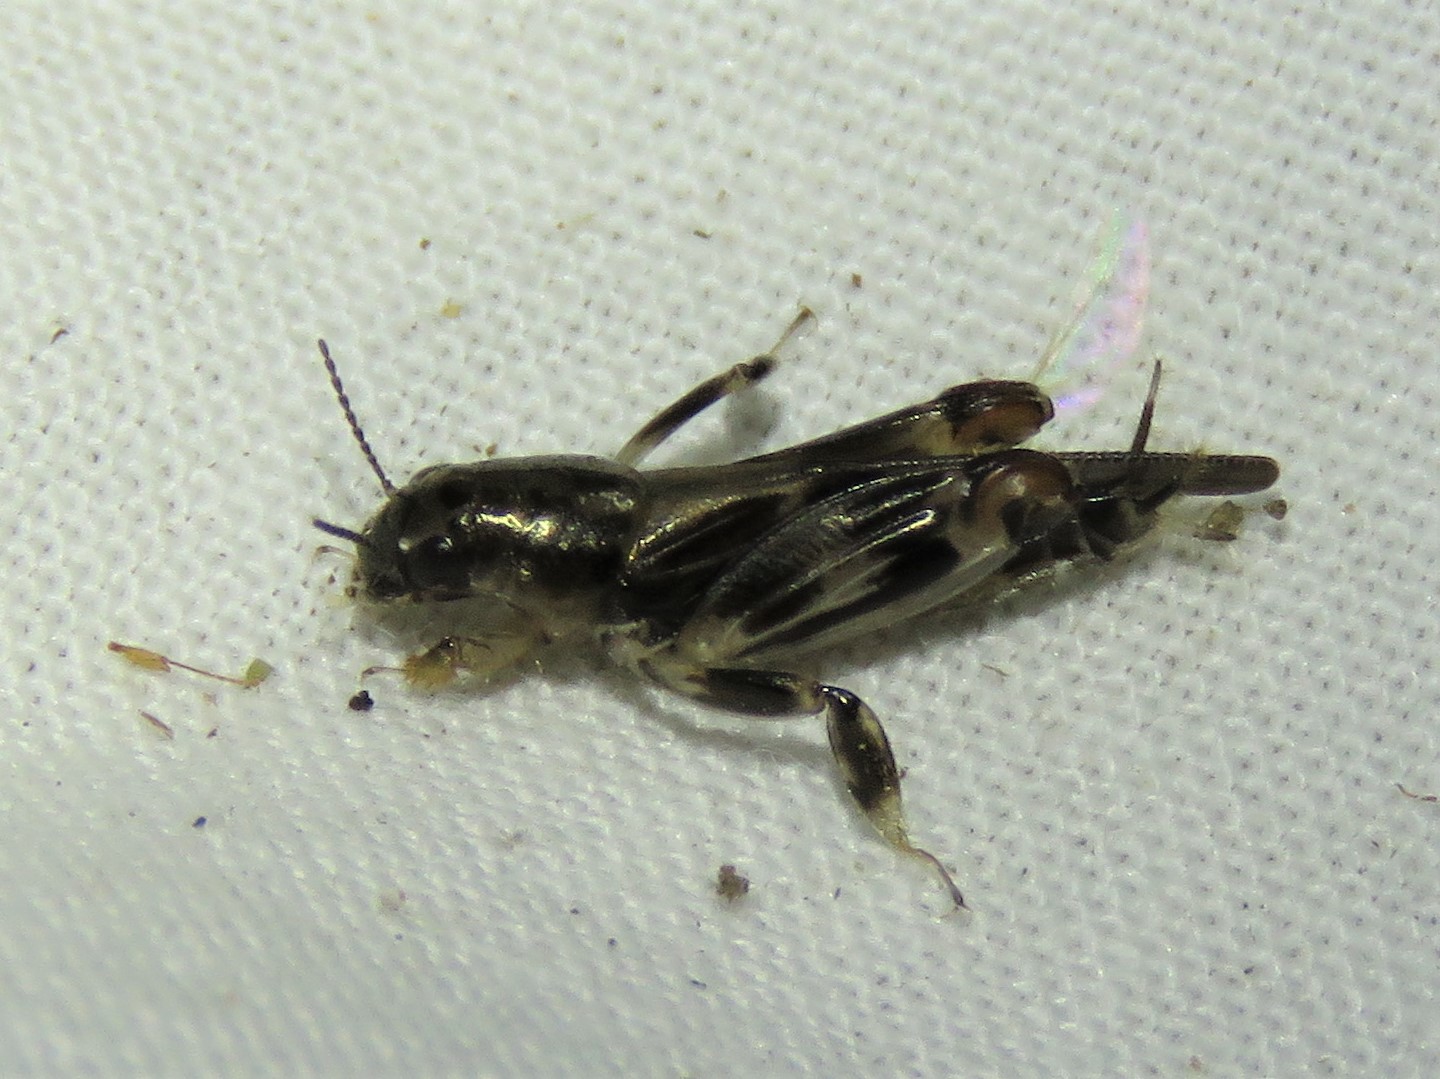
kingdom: Animalia
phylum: Arthropoda
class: Insecta
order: Orthoptera
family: Tridactylidae
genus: Neotridactylus
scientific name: Neotridactylus apicialis
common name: Larger pygmy locust
